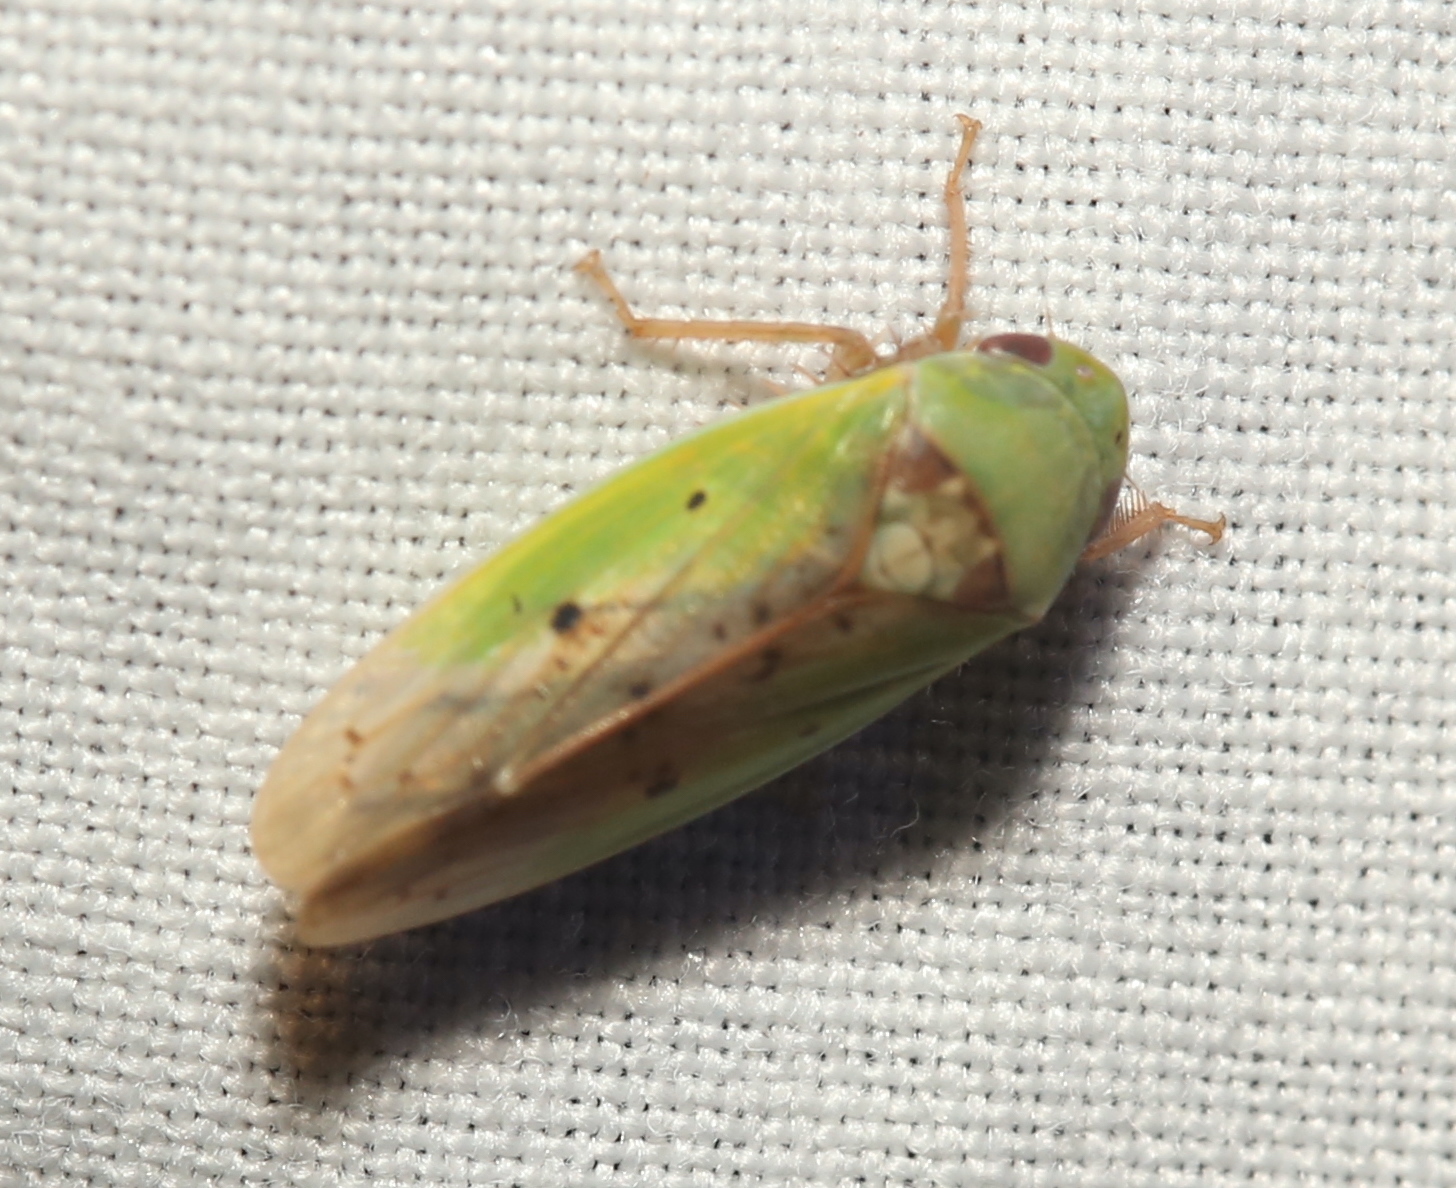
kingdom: Animalia
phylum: Arthropoda
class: Insecta
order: Hemiptera
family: Cicadellidae
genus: Ponana
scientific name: Ponana pectoralis
